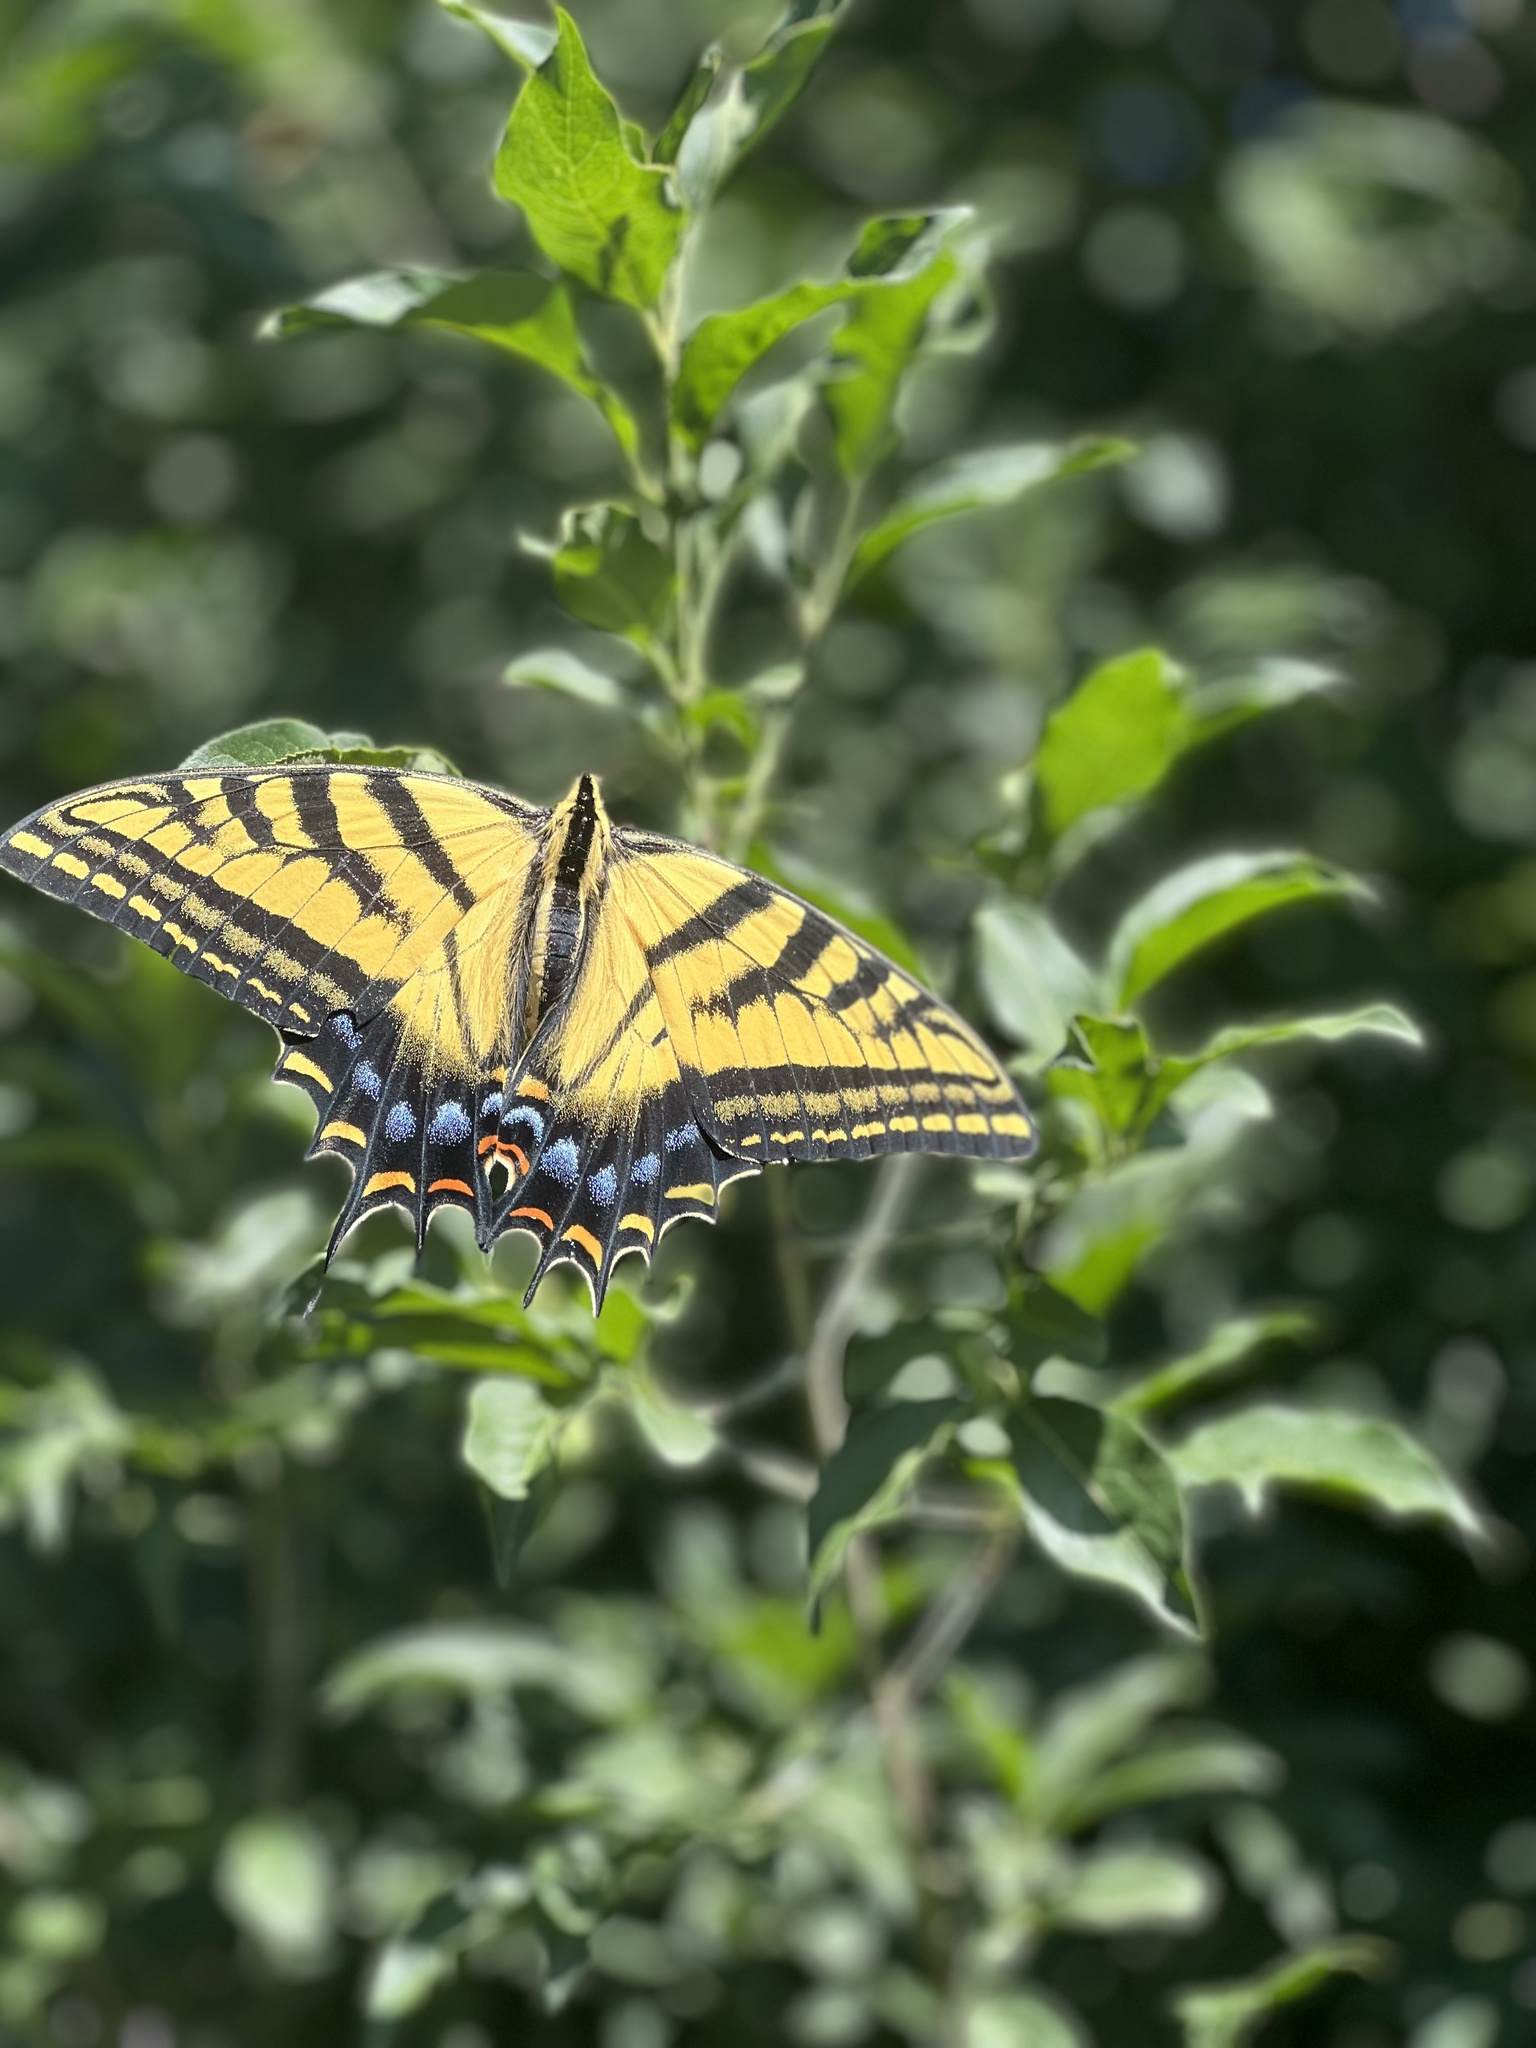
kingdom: Animalia
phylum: Arthropoda
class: Insecta
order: Lepidoptera
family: Papilionidae
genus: Papilio
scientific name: Papilio multicaudata
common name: Two-tailed tiger swallowtail
